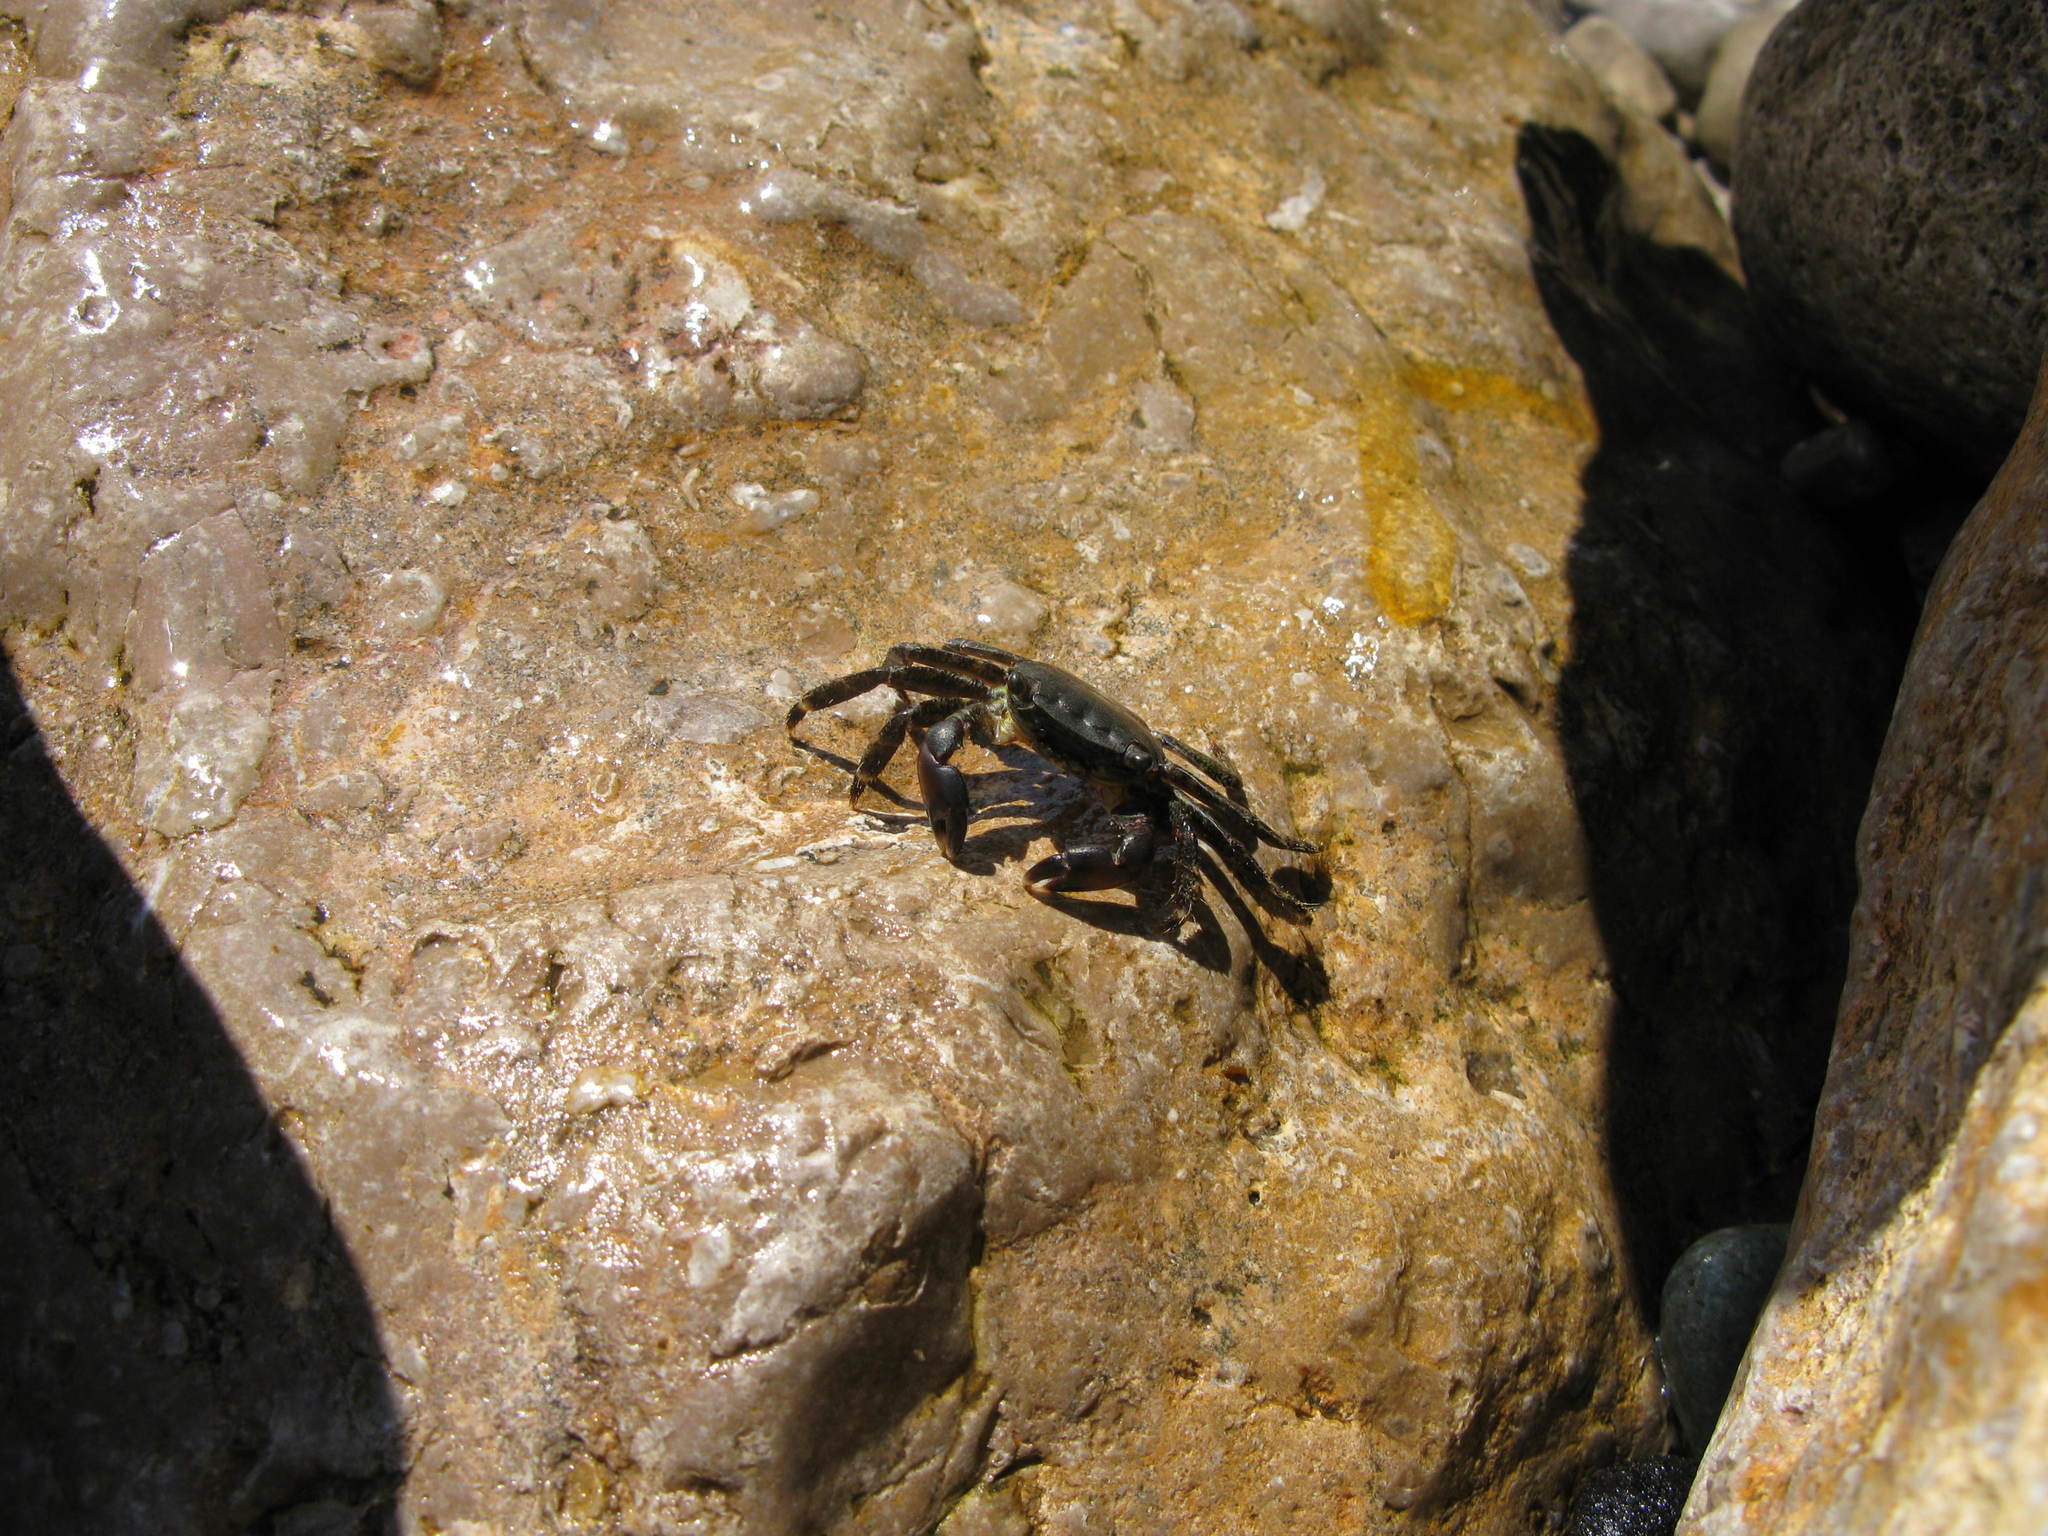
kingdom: Animalia
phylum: Arthropoda
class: Malacostraca
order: Decapoda
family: Grapsidae
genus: Pachygrapsus
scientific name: Pachygrapsus marmoratus
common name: Marbled rock crab
